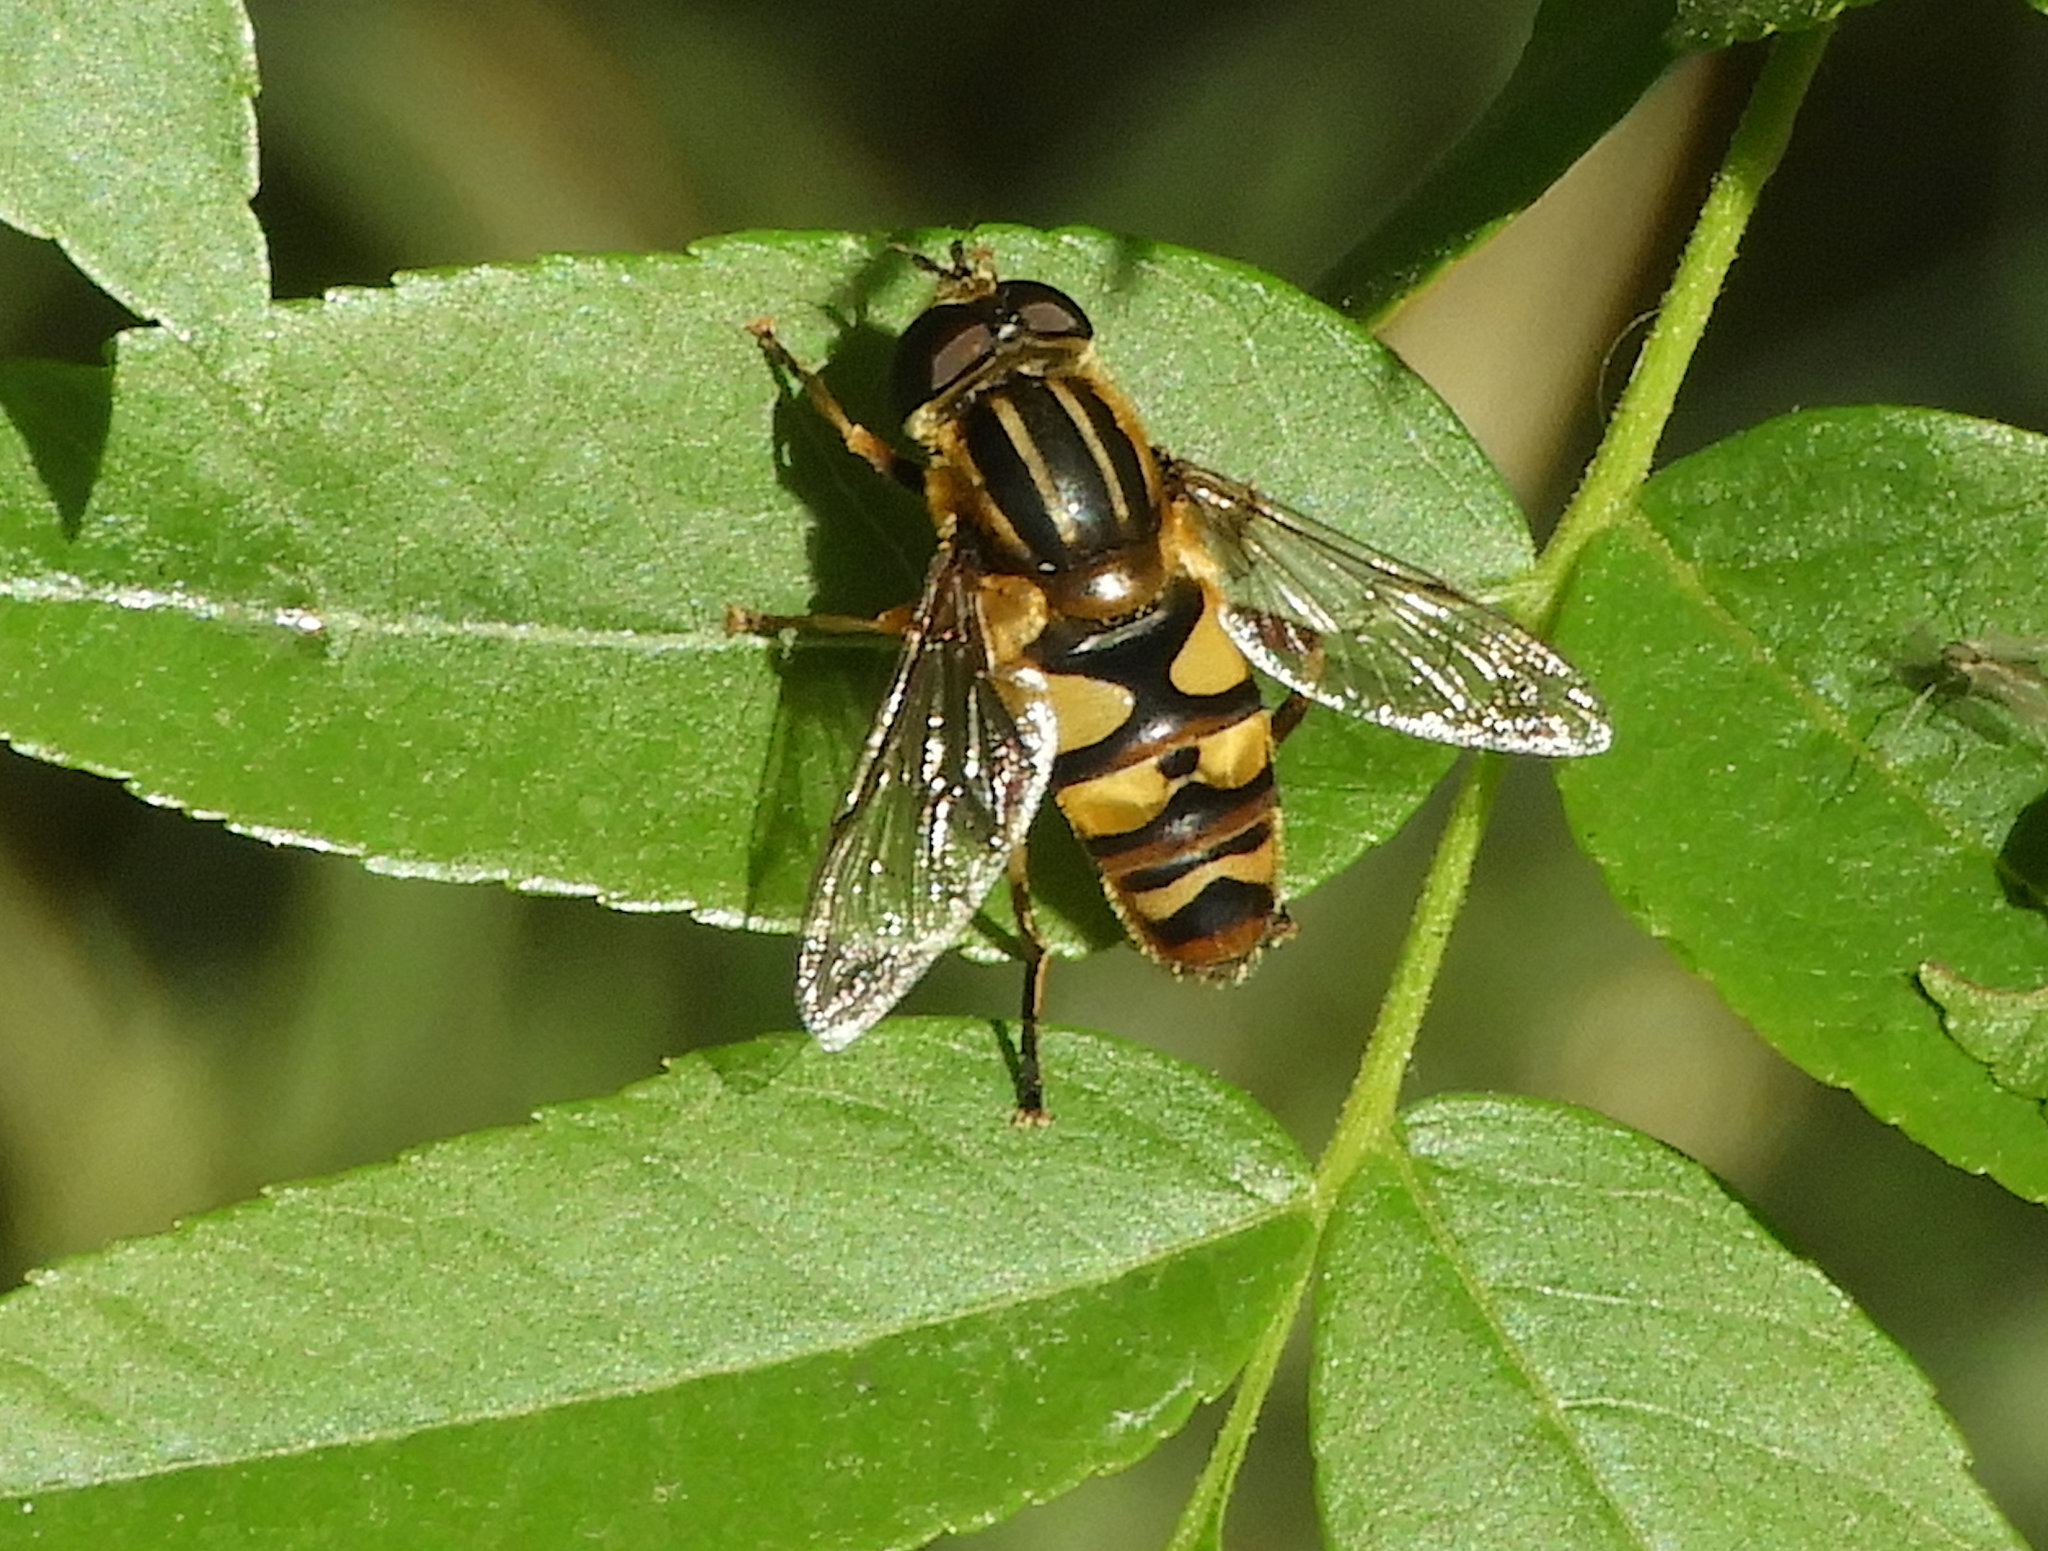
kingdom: Animalia
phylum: Arthropoda
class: Insecta
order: Diptera
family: Syrphidae
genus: Helophilus
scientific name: Helophilus fasciatus
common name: Narrow-headed marsh fly
